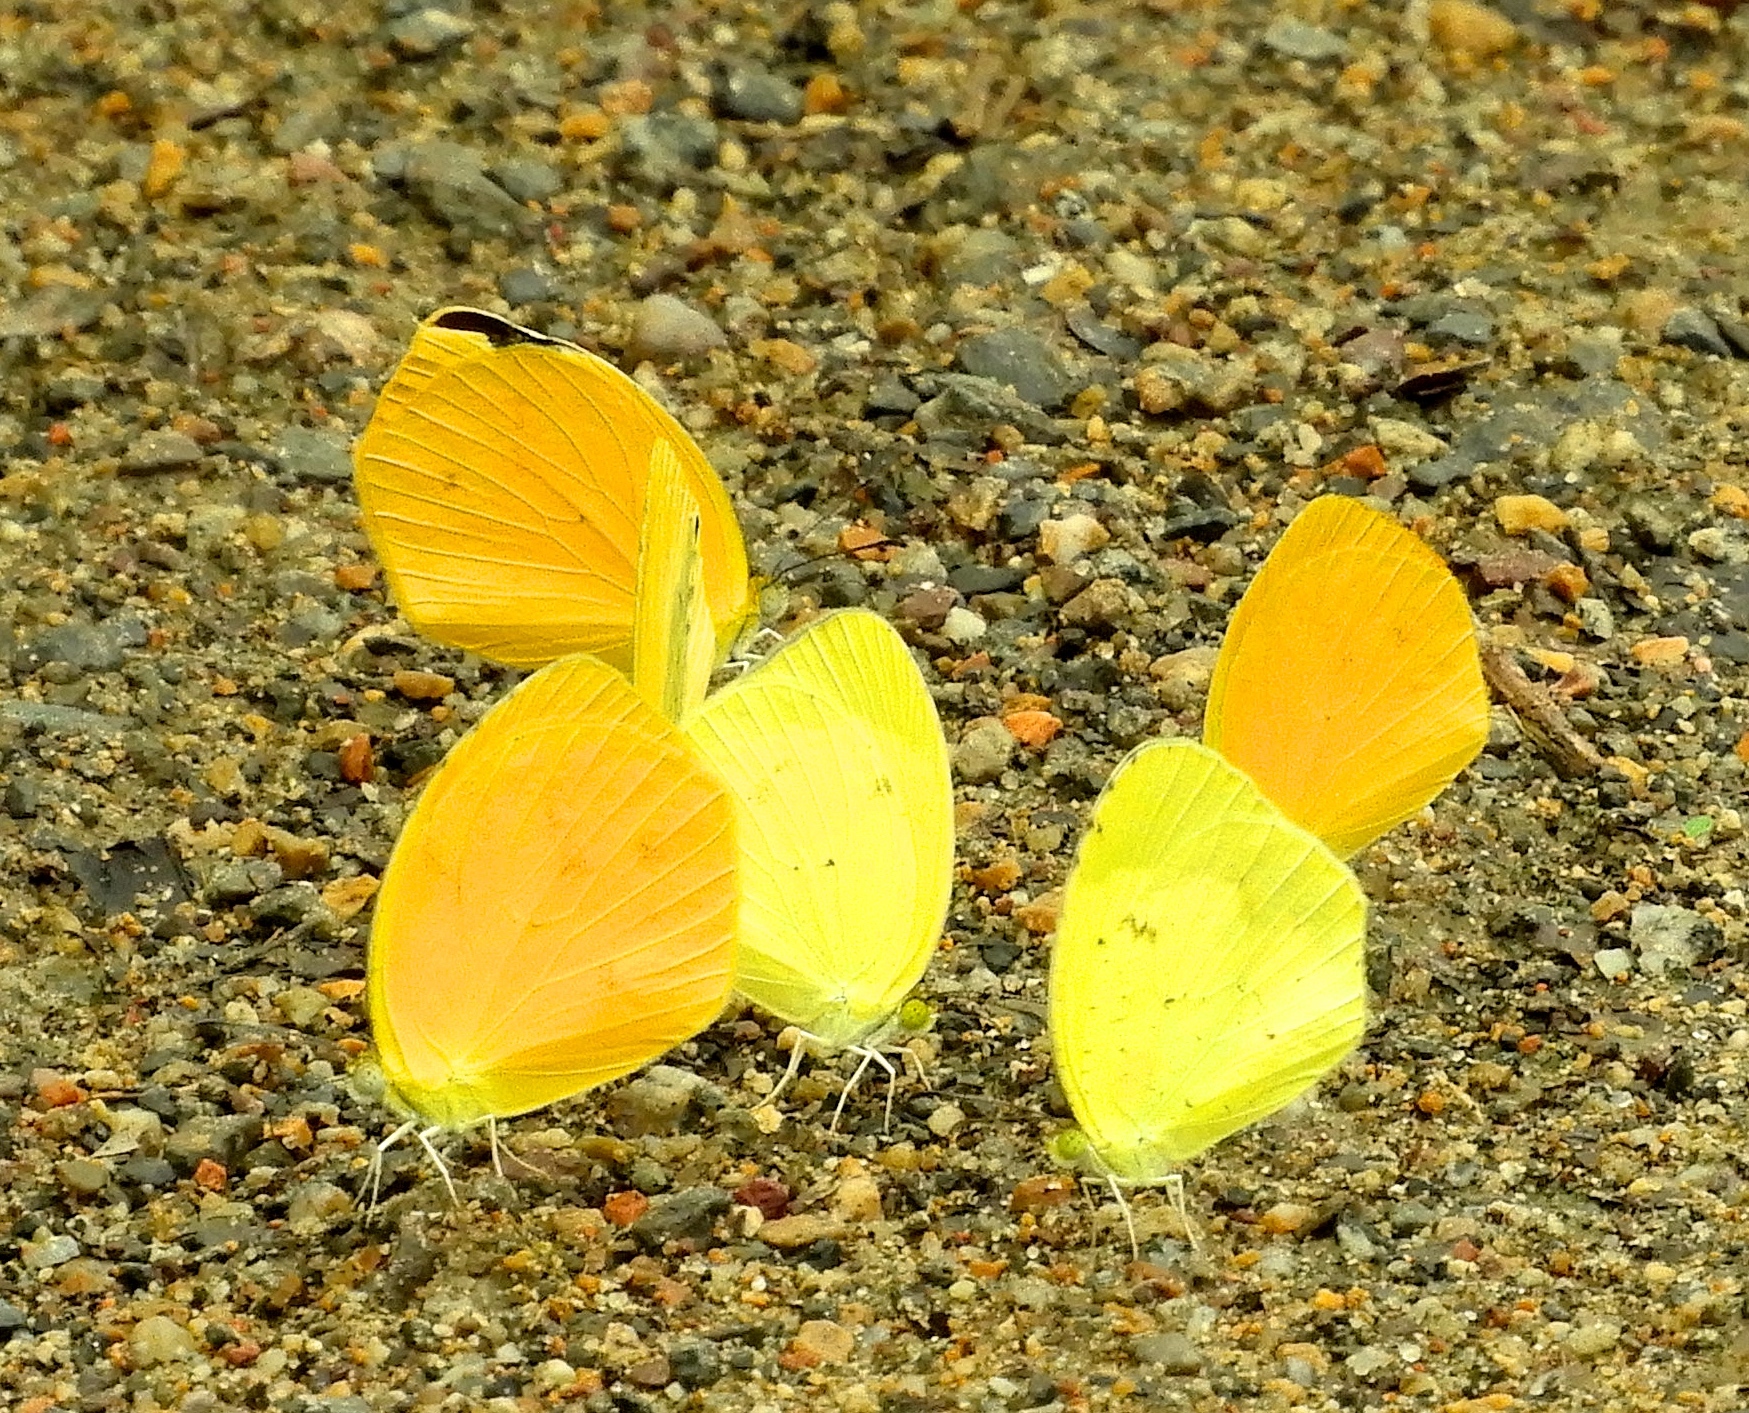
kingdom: Animalia
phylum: Arthropoda
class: Insecta
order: Lepidoptera
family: Pieridae
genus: Pyrisitia
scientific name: Pyrisitia proterpia
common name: Tailed orange
